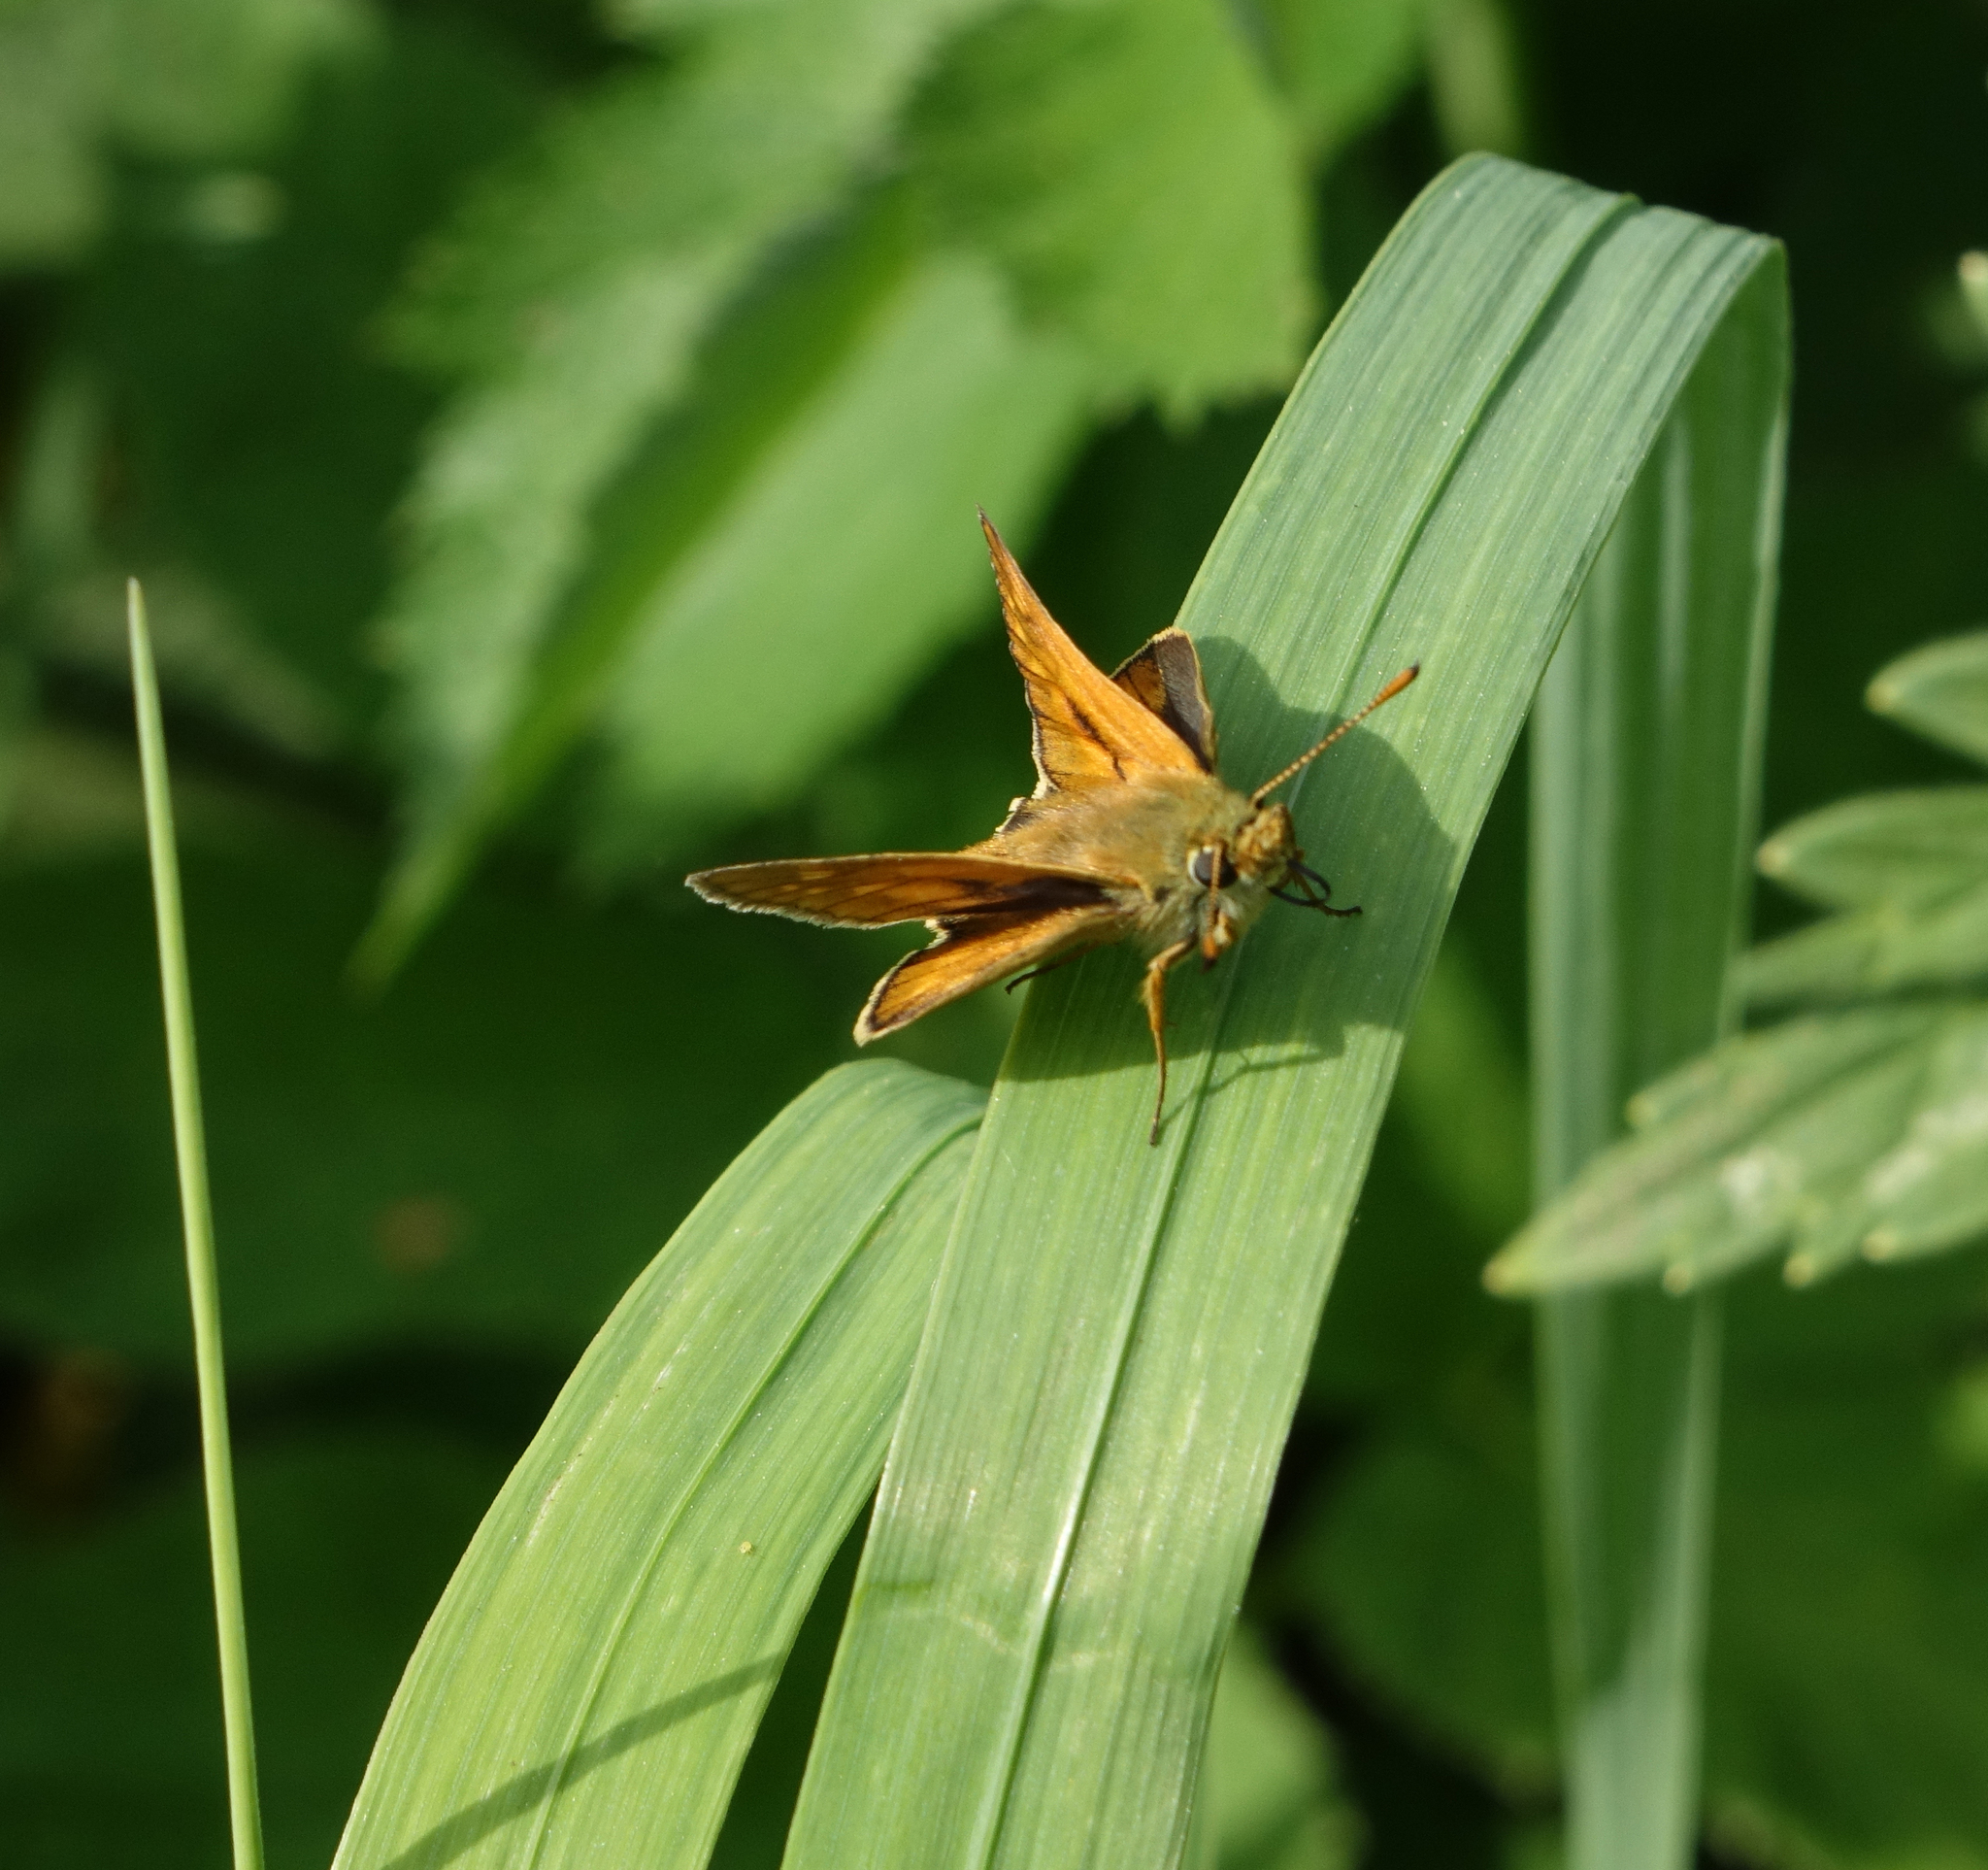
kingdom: Animalia
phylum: Arthropoda
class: Insecta
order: Lepidoptera
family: Hesperiidae
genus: Ochlodes
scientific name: Ochlodes venata
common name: Large skipper
